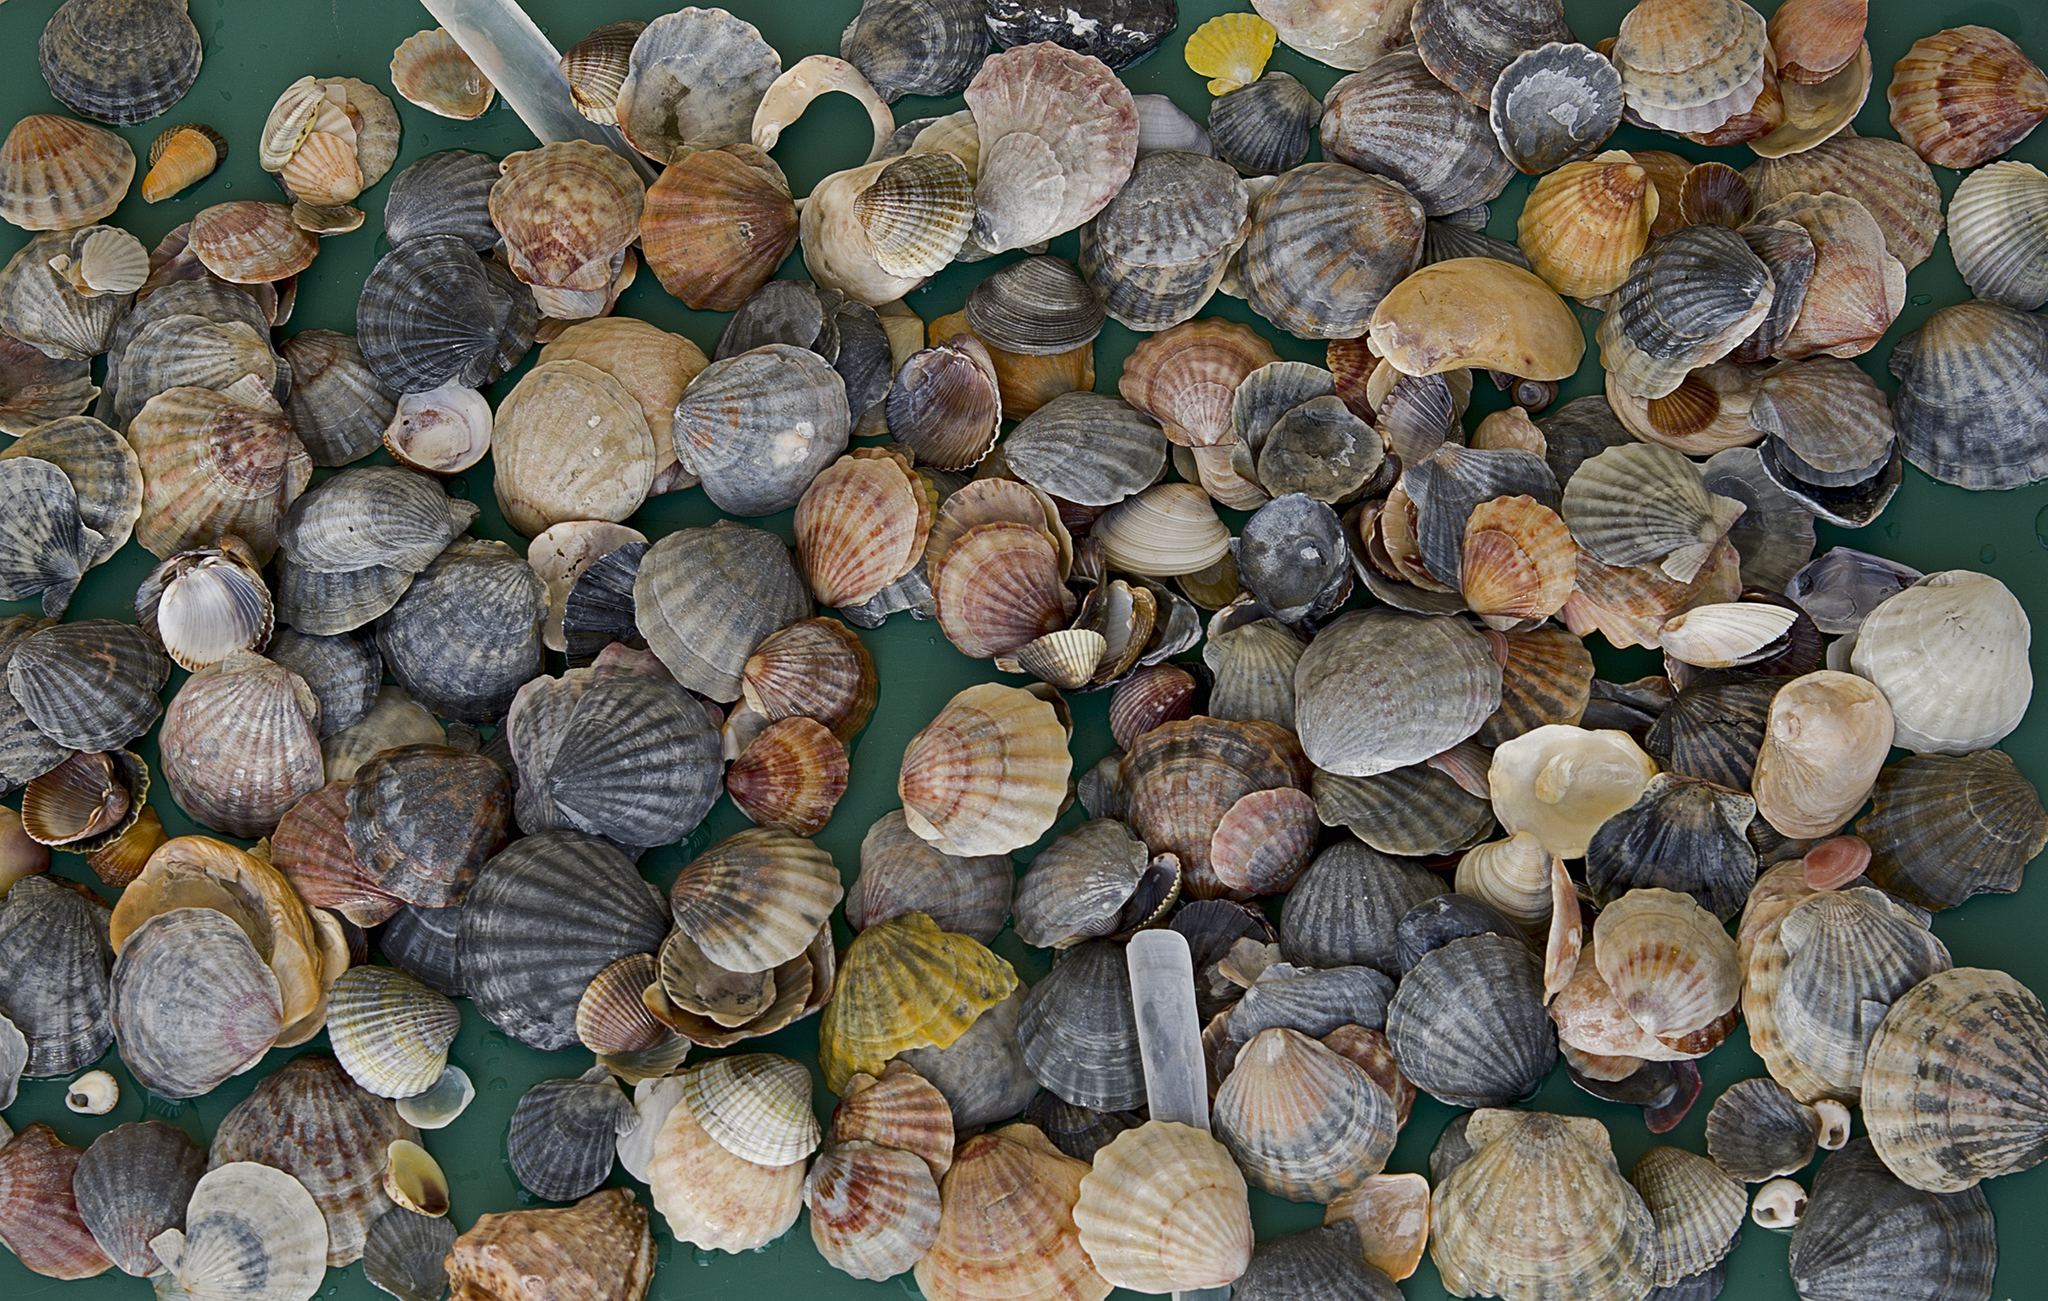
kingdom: Animalia
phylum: Mollusca
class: Bivalvia
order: Pectinida
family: Pectinidae
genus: Flexopecten
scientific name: Flexopecten glaber
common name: Smooth scallop
